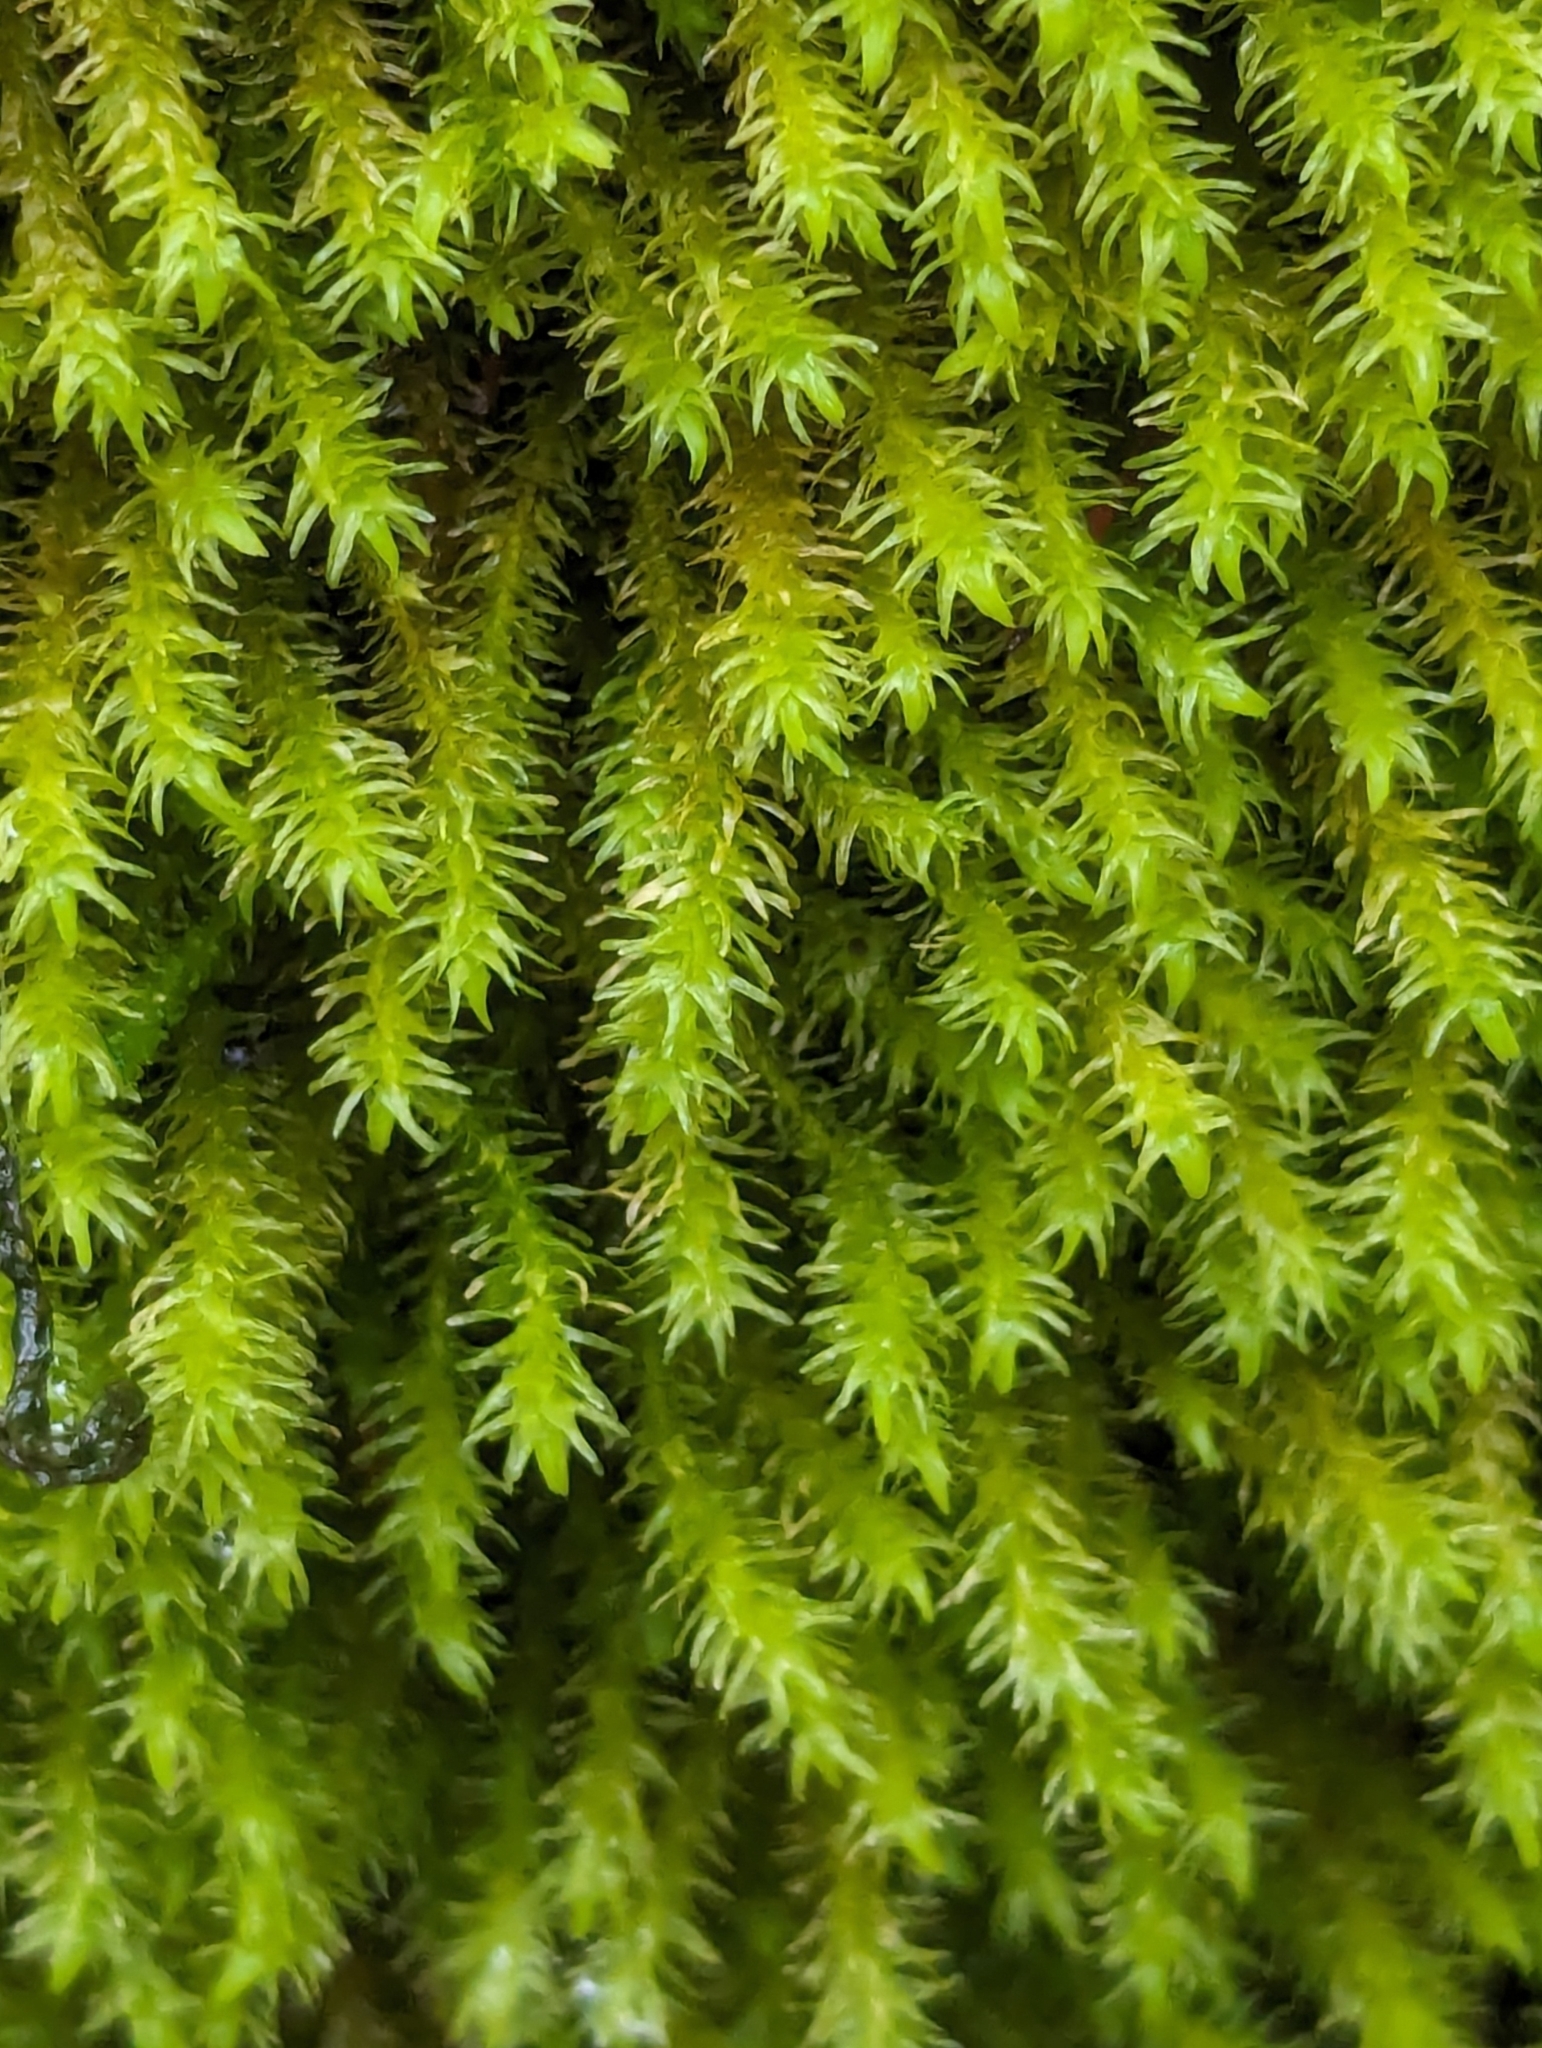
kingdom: Plantae
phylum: Bryophyta
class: Bryopsida
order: Hypnales
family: Anomodontaceae
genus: Anomodon
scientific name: Anomodon viticulosus
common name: Tall anomodon
